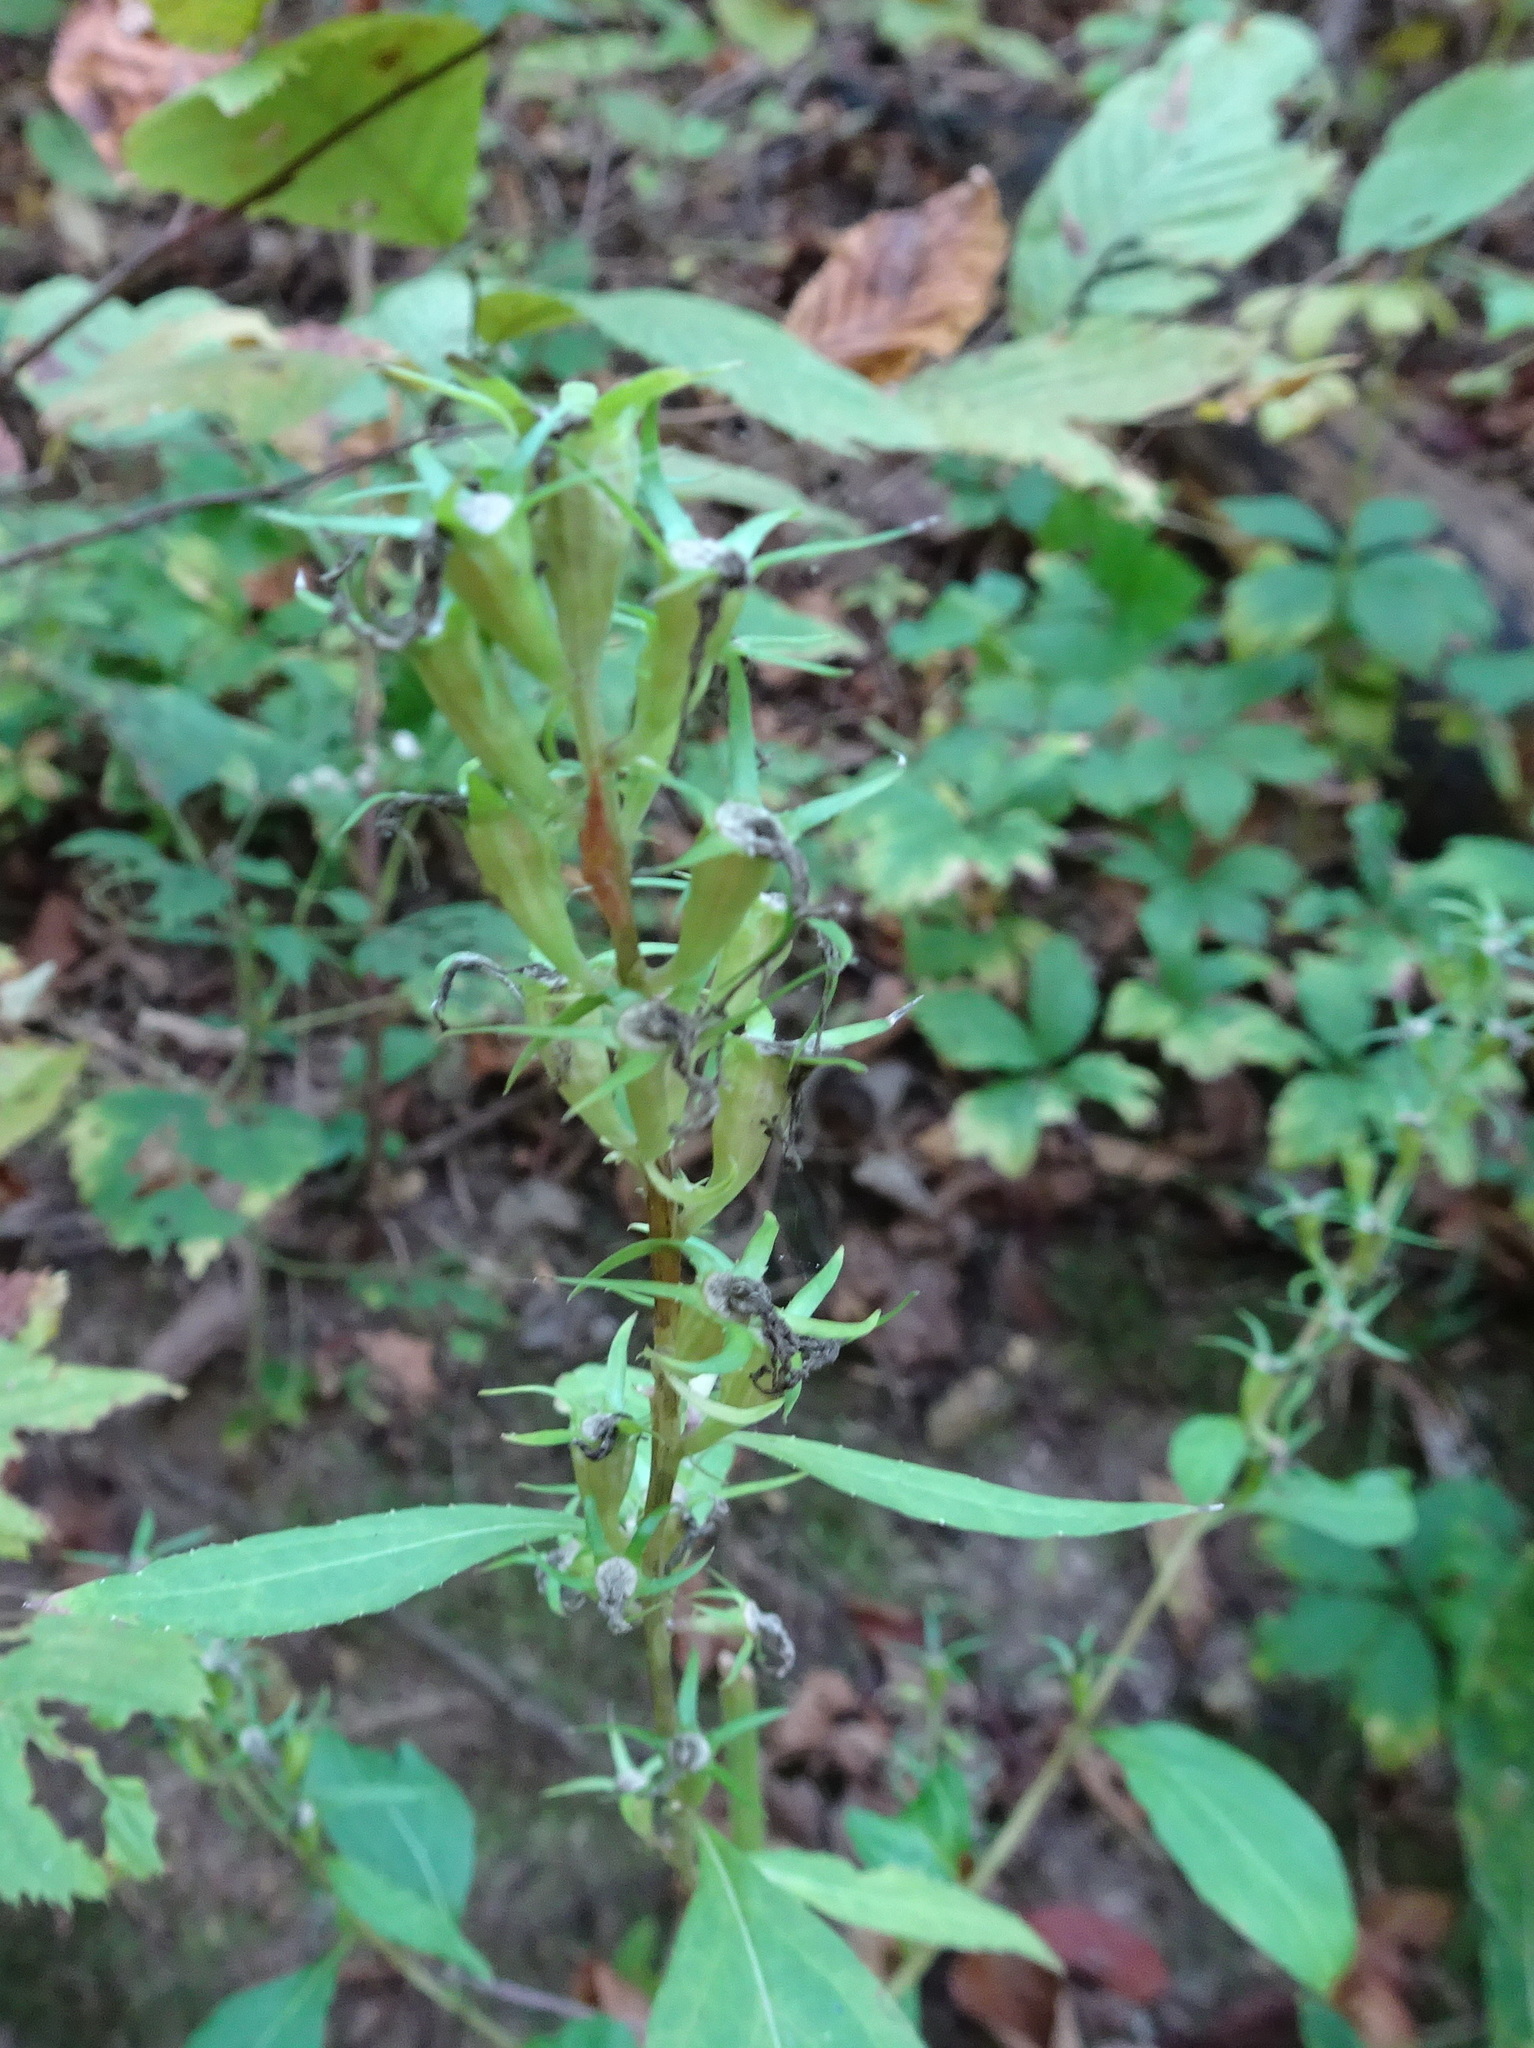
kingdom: Plantae
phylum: Tracheophyta
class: Magnoliopsida
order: Asterales
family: Campanulaceae
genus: Campanulastrum
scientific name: Campanulastrum americanum
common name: American bellflower
